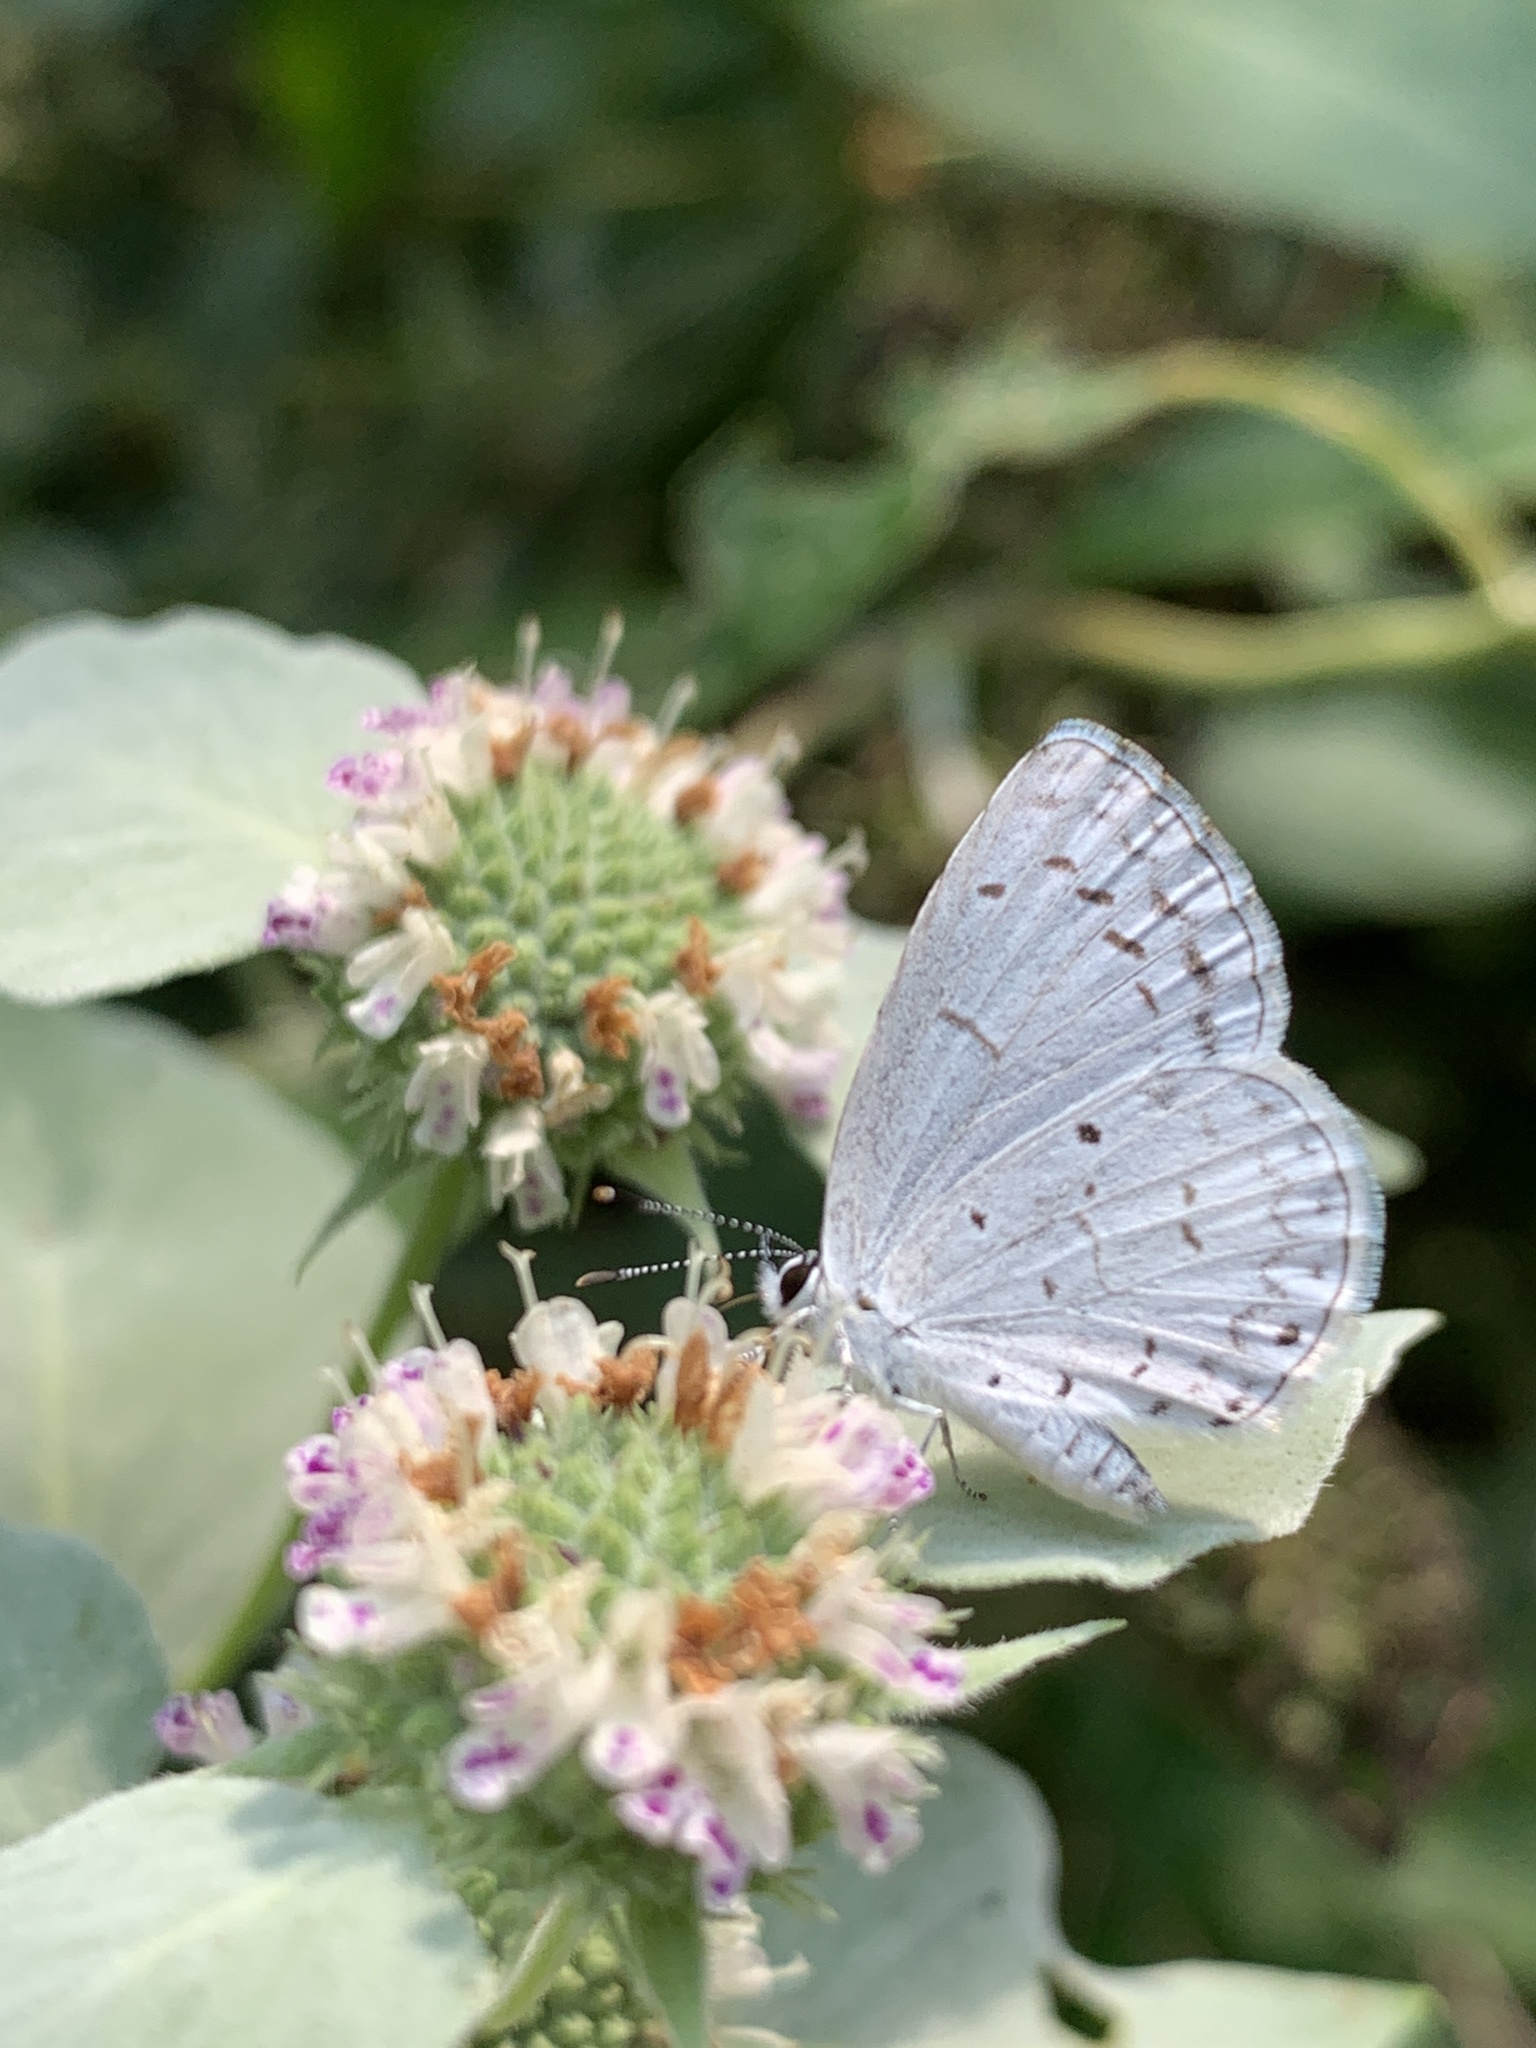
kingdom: Animalia
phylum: Arthropoda
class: Insecta
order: Lepidoptera
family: Lycaenidae
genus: Cyaniris
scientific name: Cyaniris neglecta
